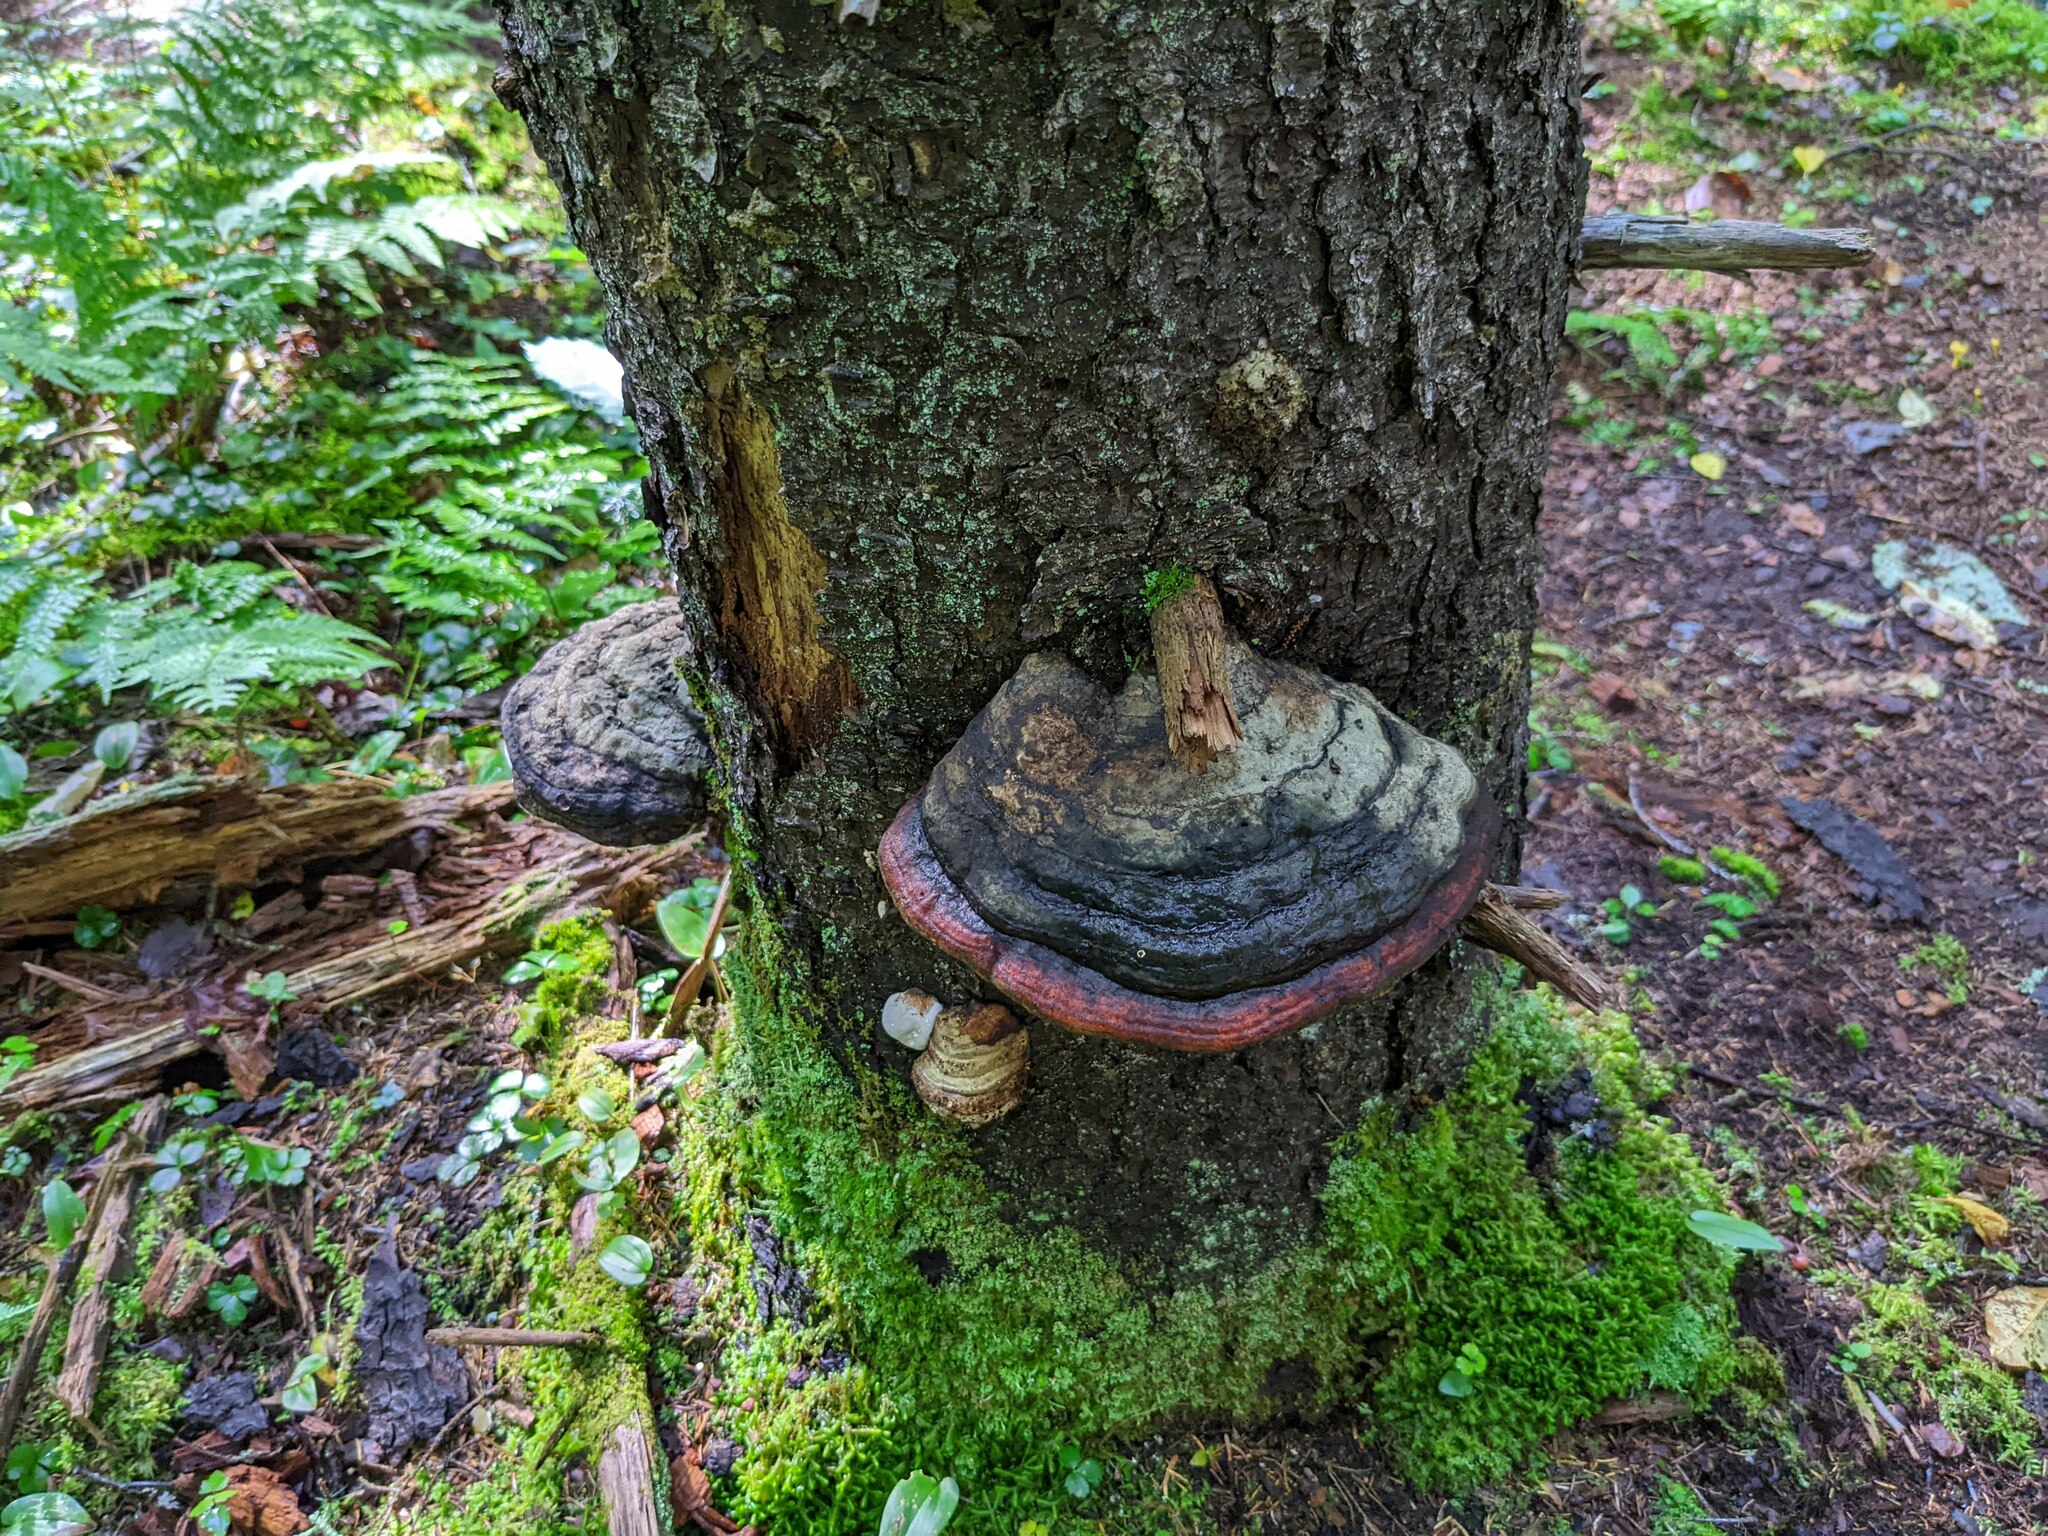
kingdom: Fungi
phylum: Basidiomycota
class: Agaricomycetes
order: Polyporales
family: Fomitopsidaceae
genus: Fomitopsis
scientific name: Fomitopsis mounceae
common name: Northern red belt
